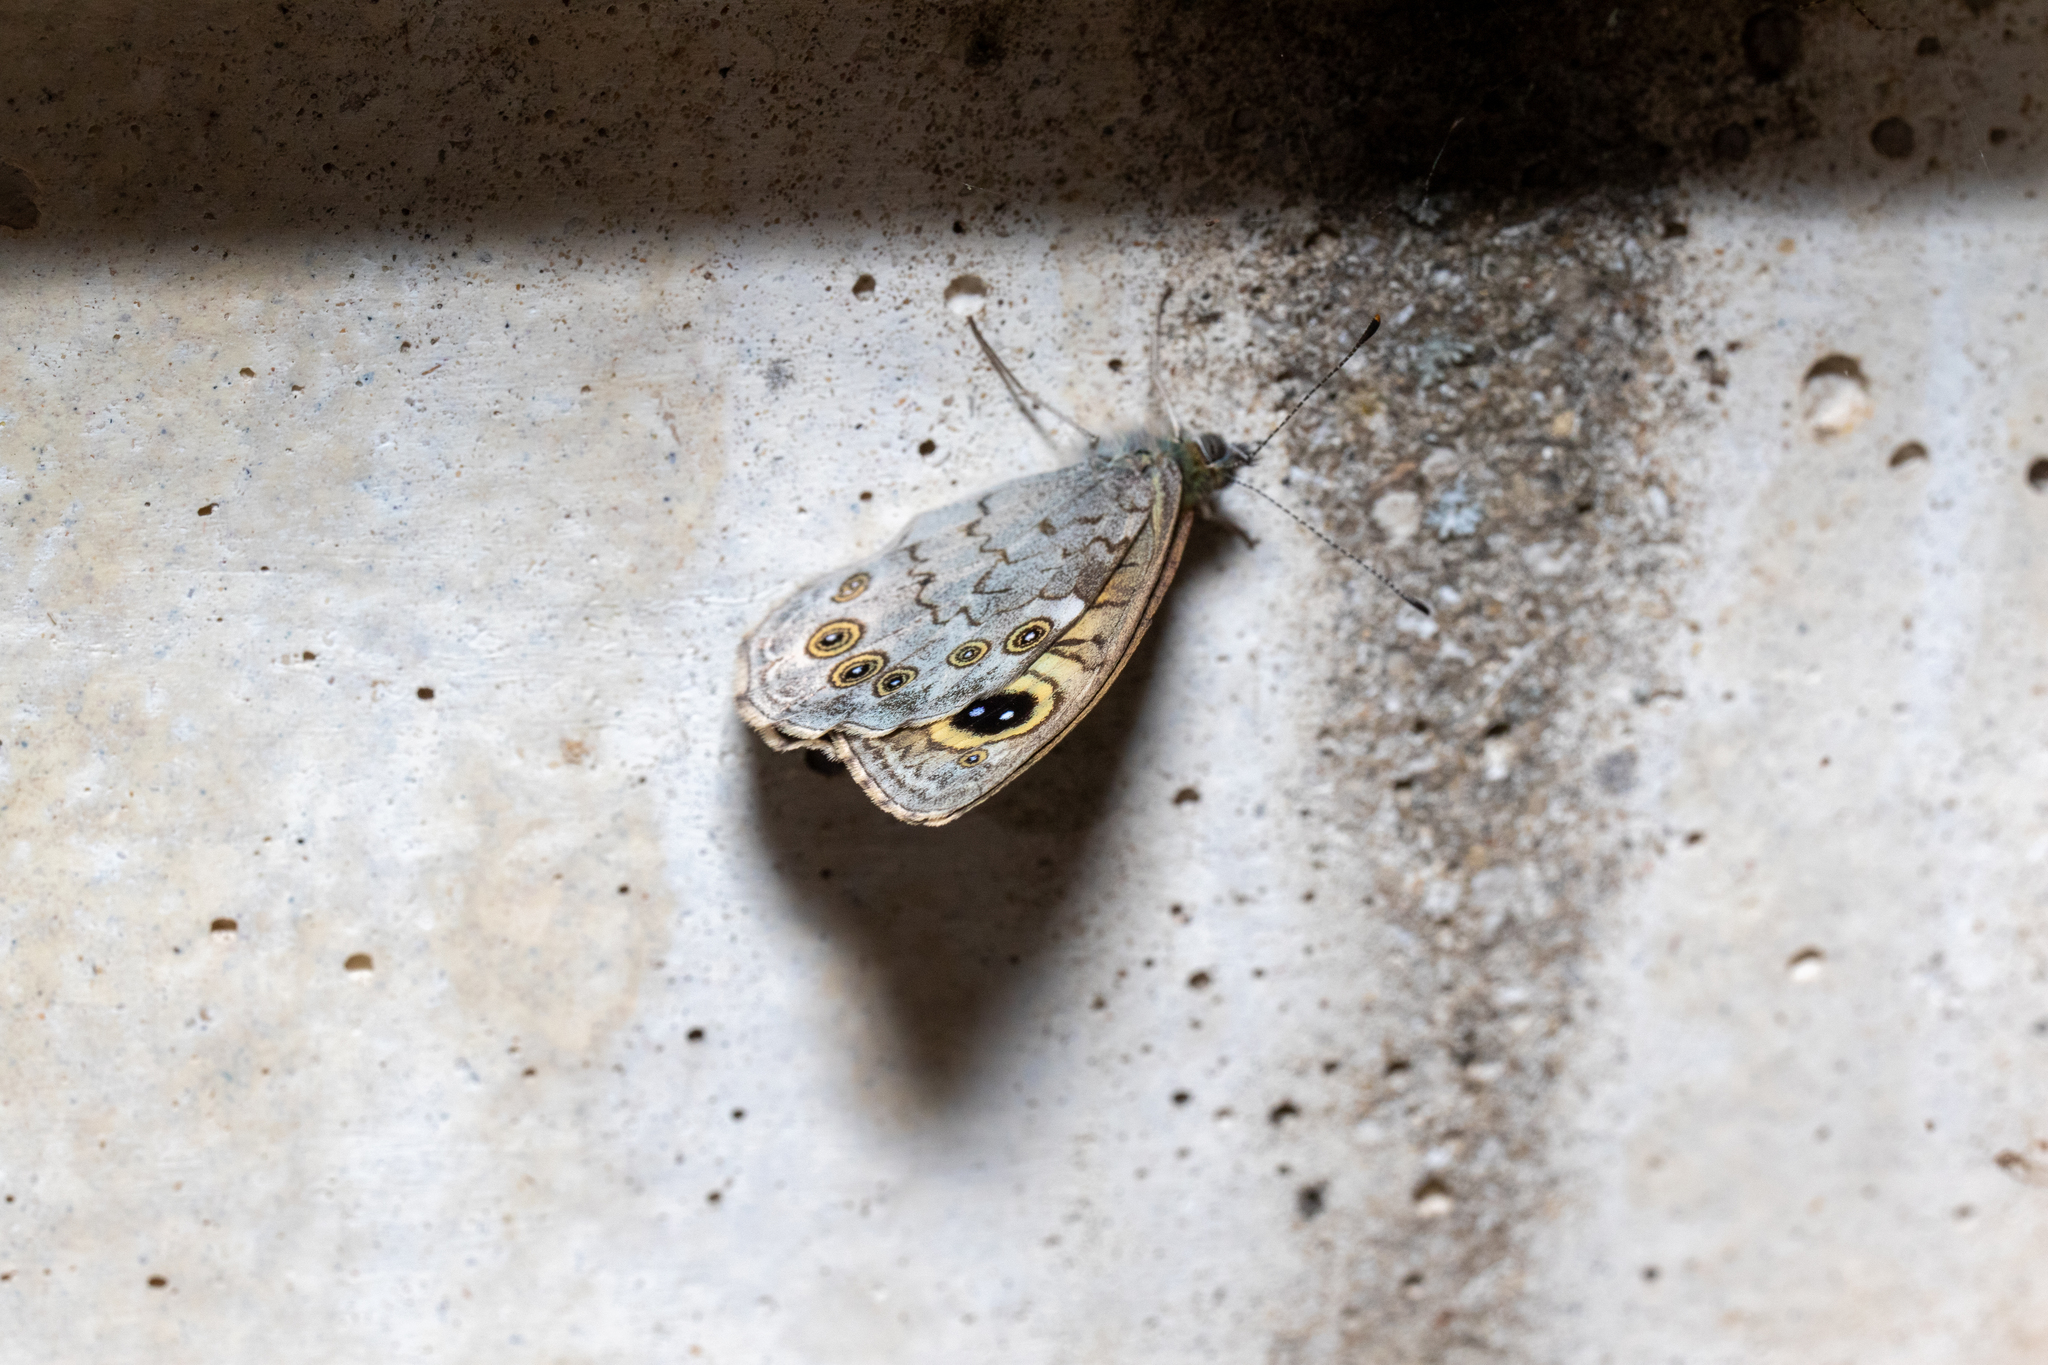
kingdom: Animalia
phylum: Arthropoda
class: Insecta
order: Lepidoptera
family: Nymphalidae
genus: Pararge
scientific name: Pararge Lasiommata maera
